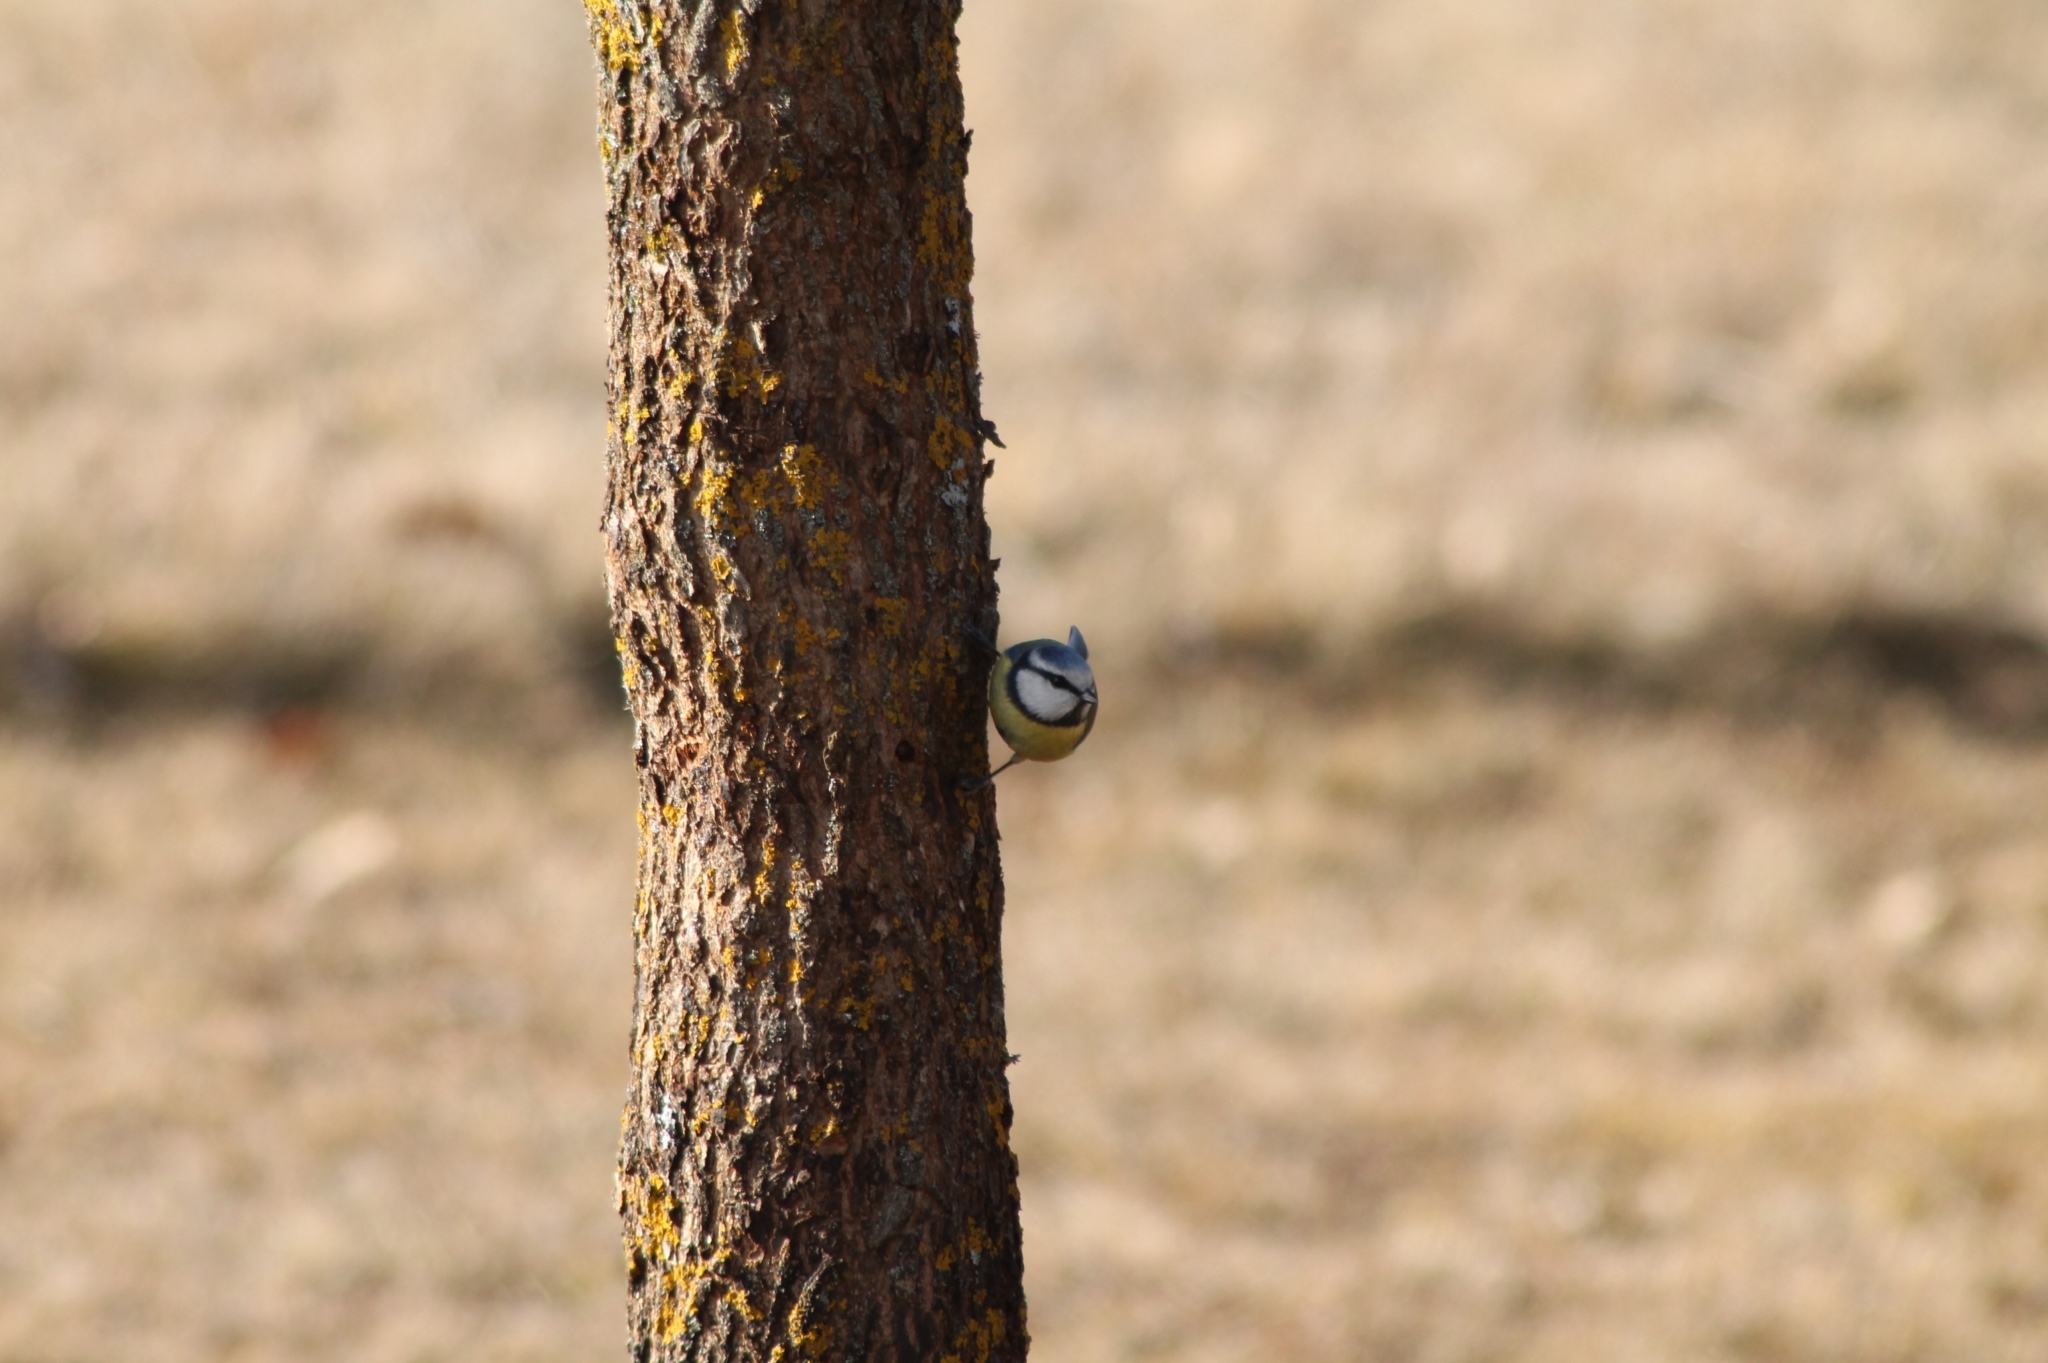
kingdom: Animalia
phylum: Chordata
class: Aves
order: Passeriformes
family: Paridae
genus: Cyanistes
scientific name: Cyanistes caeruleus
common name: Eurasian blue tit
